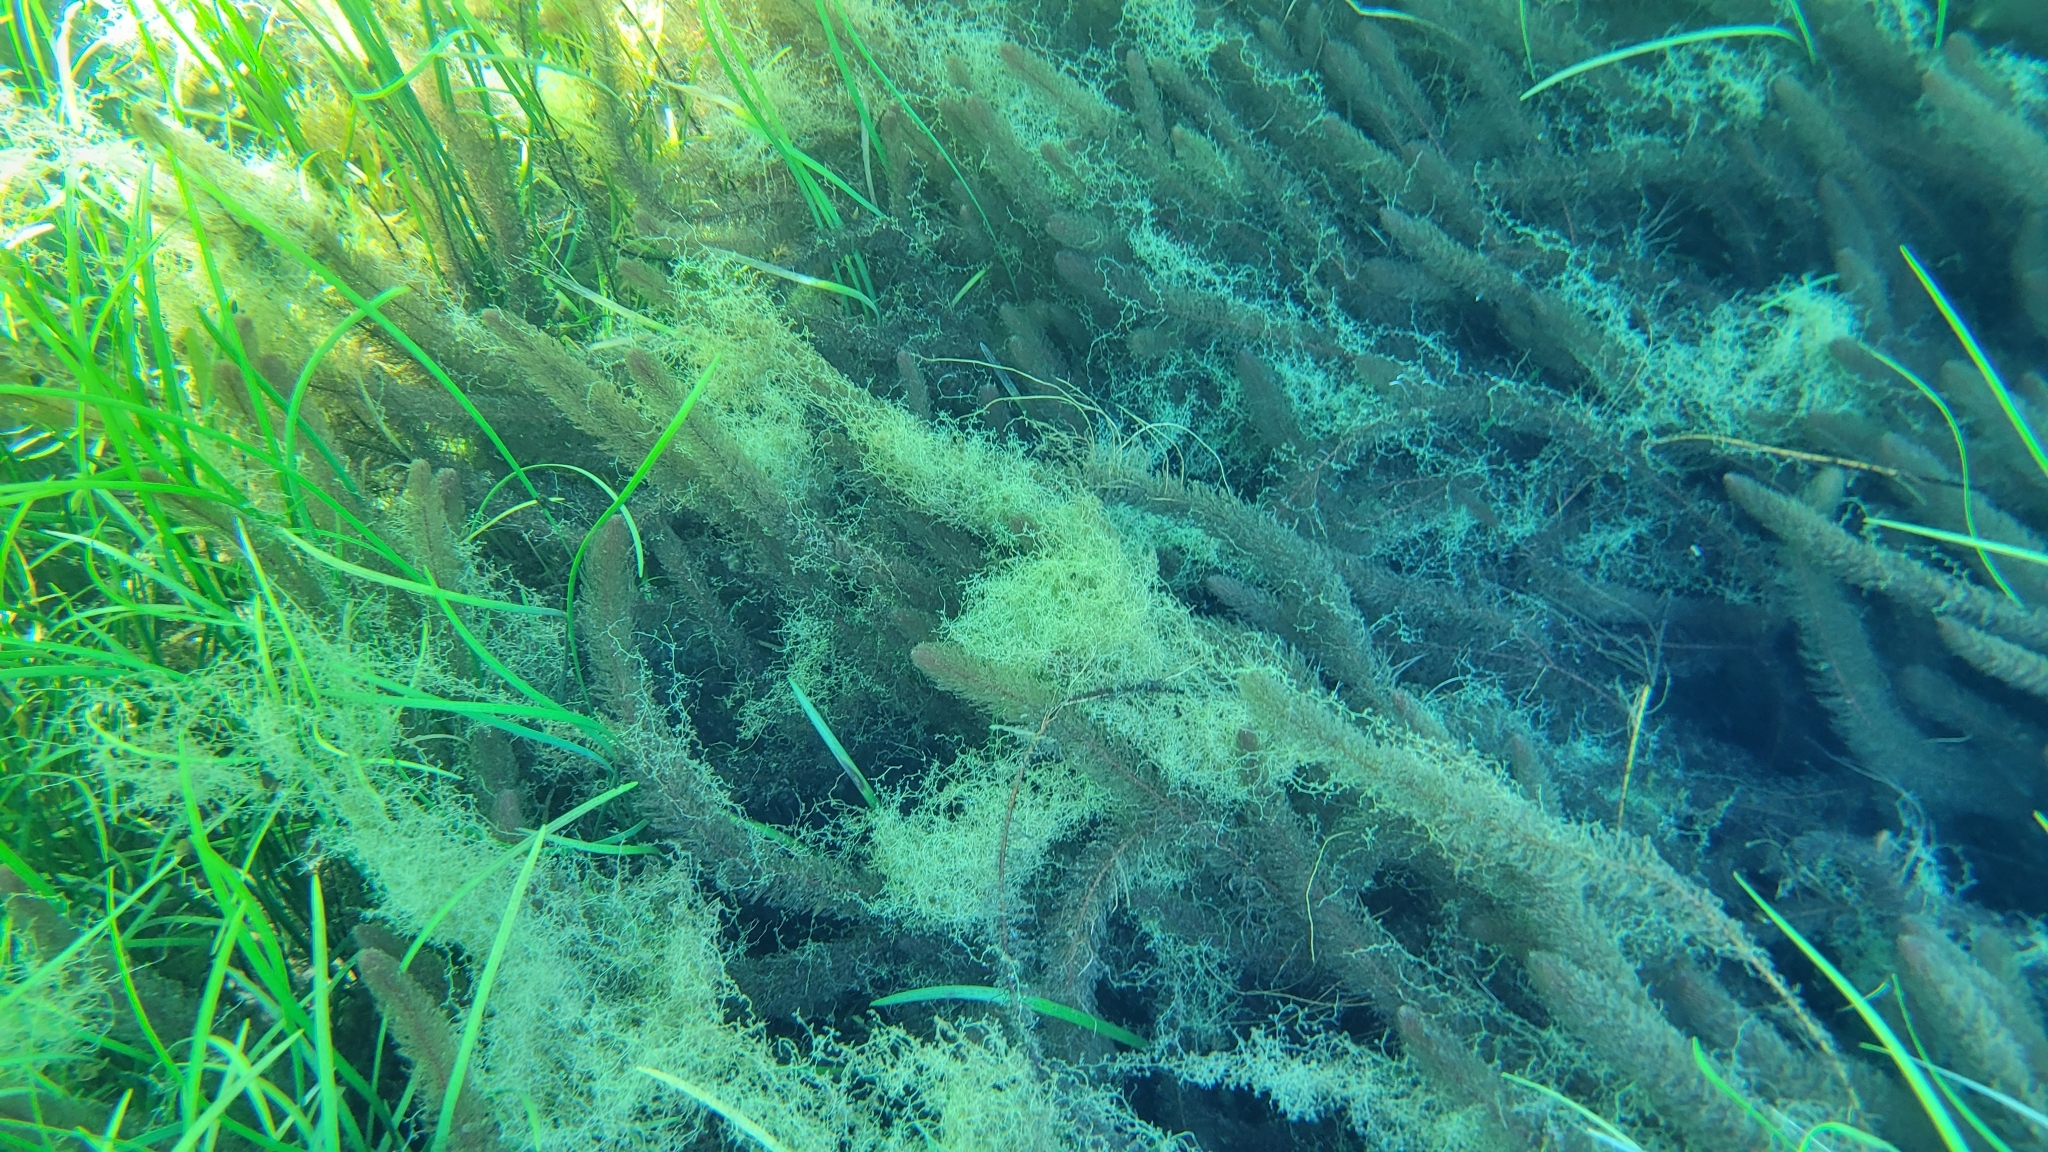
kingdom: Plantae
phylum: Tracheophyta
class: Magnoliopsida
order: Lamiales
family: Lentibulariaceae
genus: Utricularia
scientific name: Utricularia gibba
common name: Humped bladderwort
